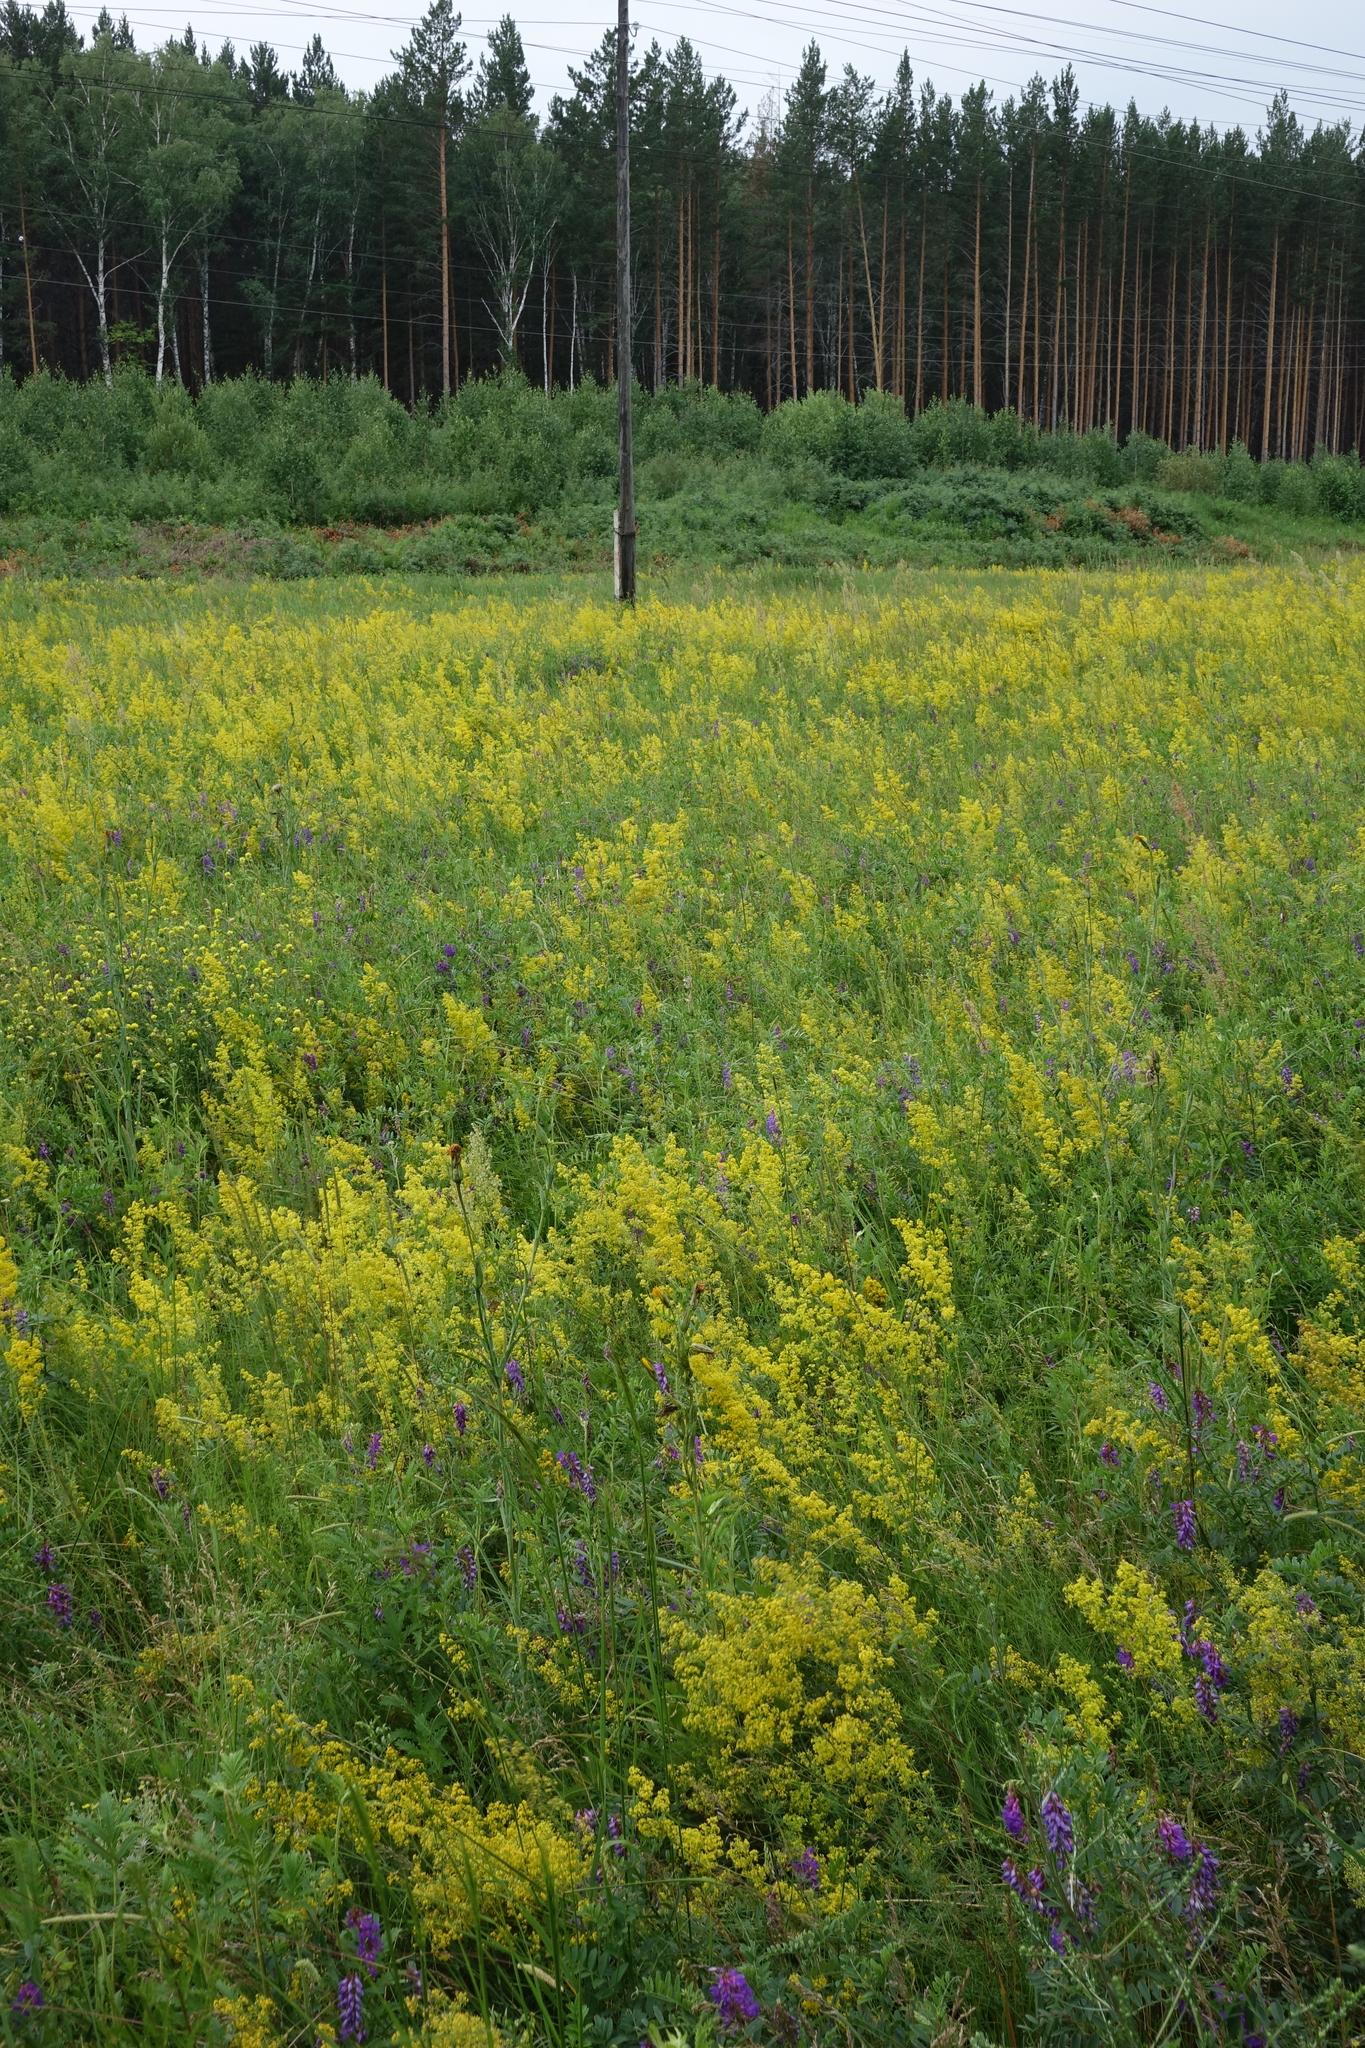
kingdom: Plantae
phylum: Tracheophyta
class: Magnoliopsida
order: Gentianales
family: Rubiaceae
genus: Galium
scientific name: Galium verum
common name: Lady's bedstraw
